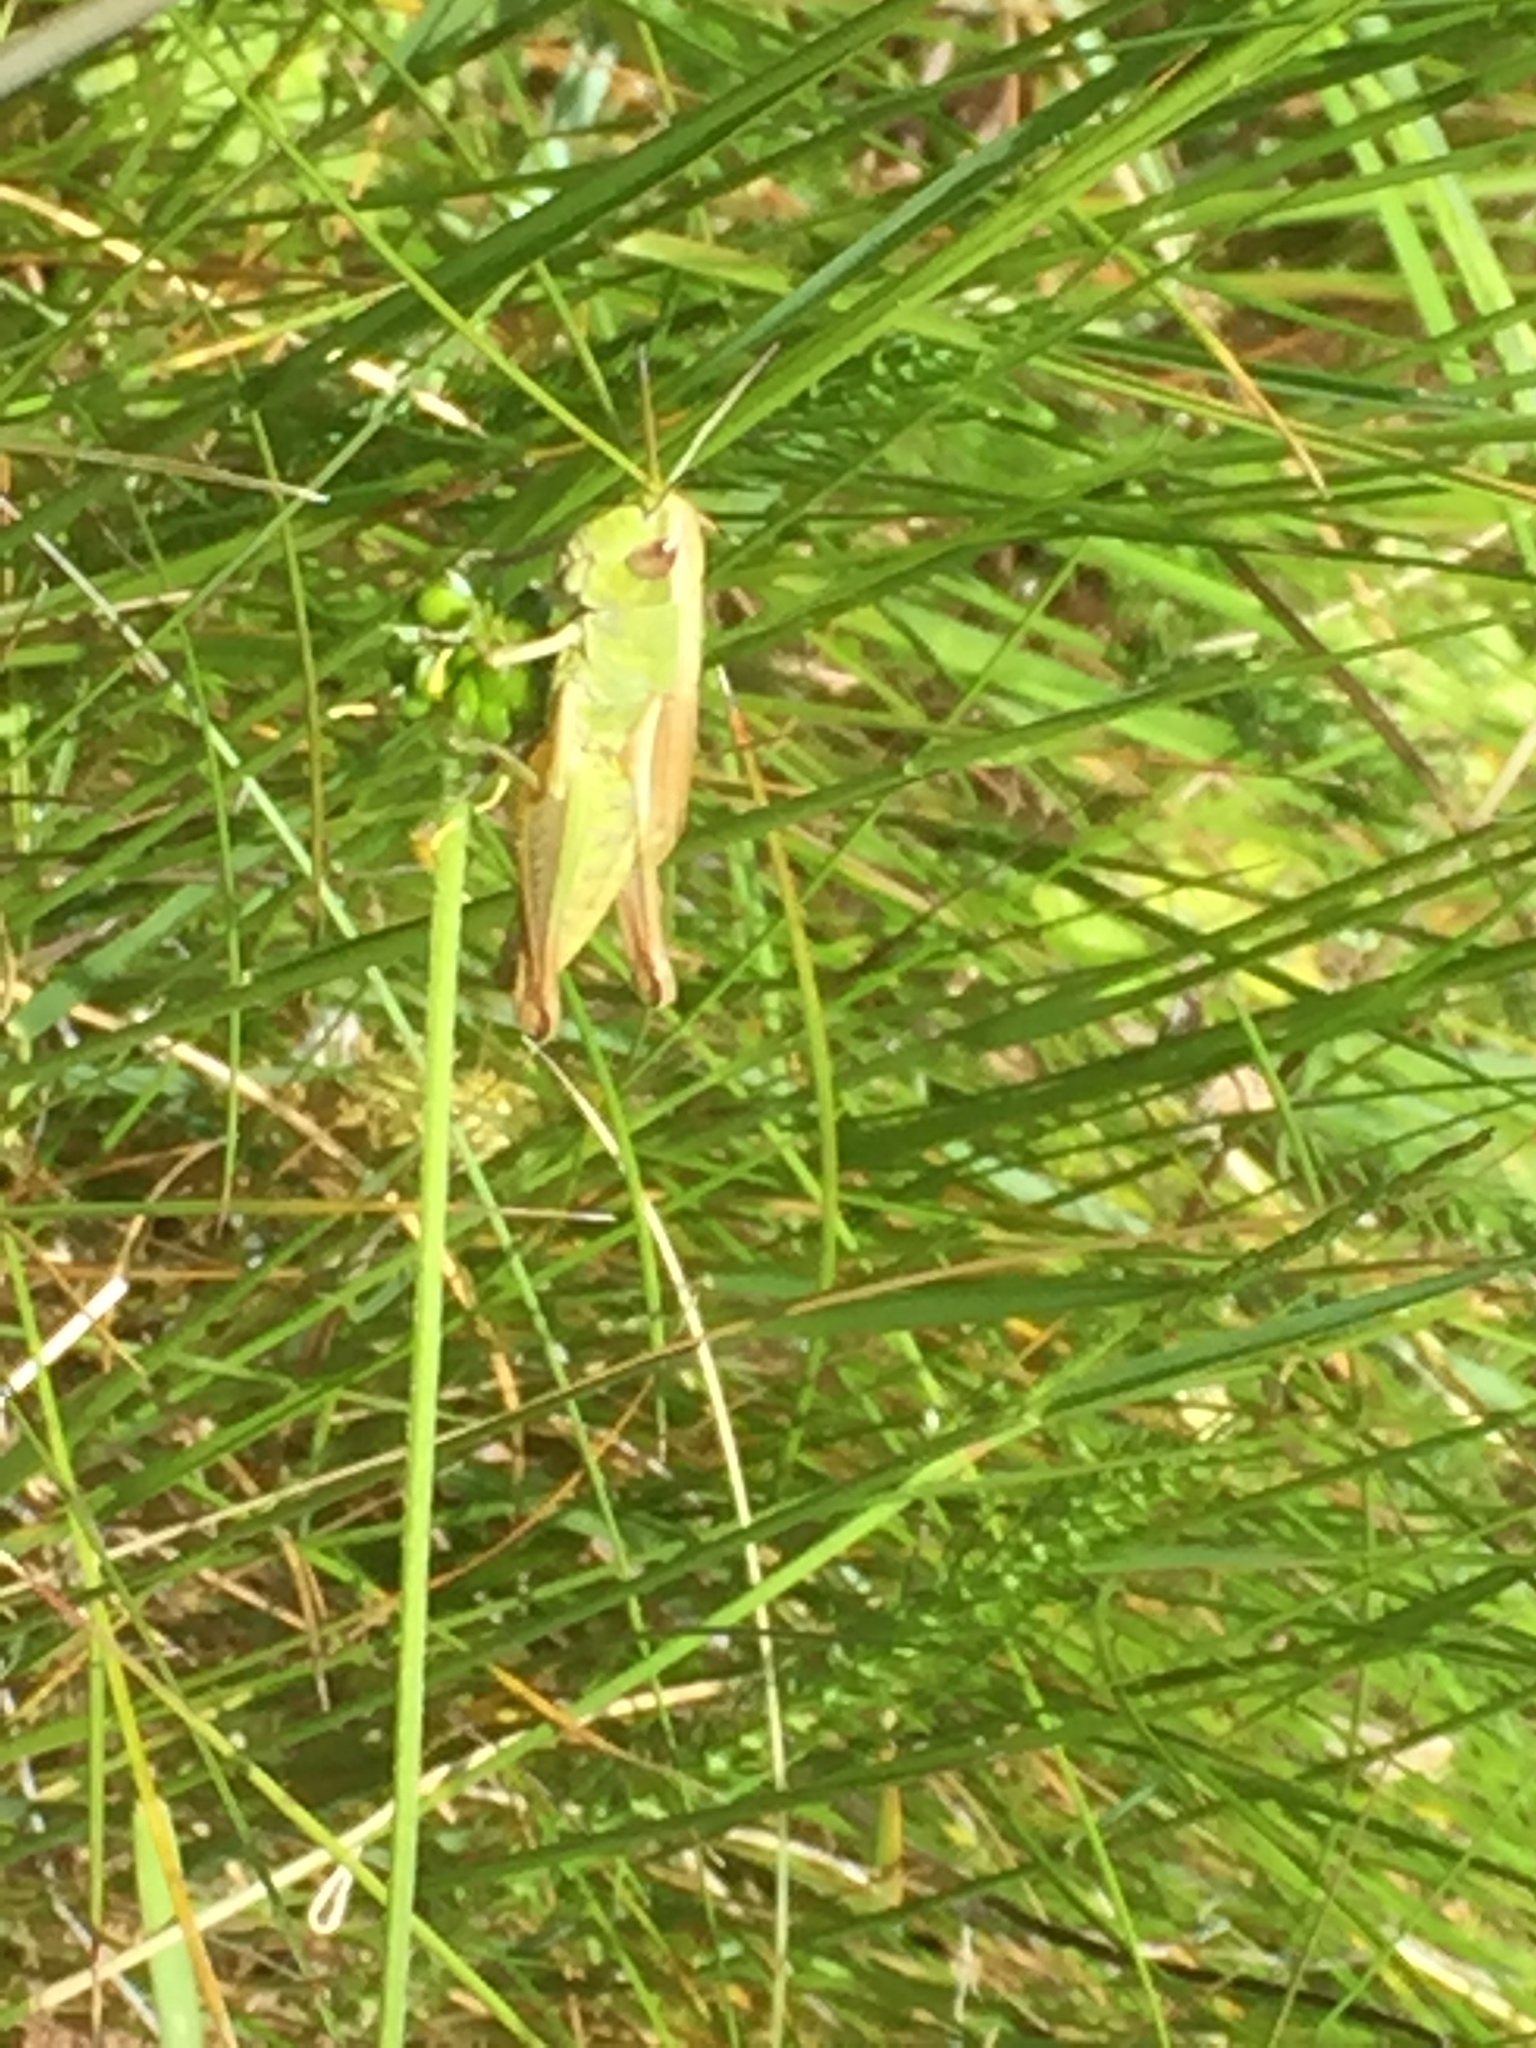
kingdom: Animalia
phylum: Arthropoda
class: Insecta
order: Orthoptera
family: Acrididae
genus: Pseudochorthippus
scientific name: Pseudochorthippus parallelus
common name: Meadow grasshopper
